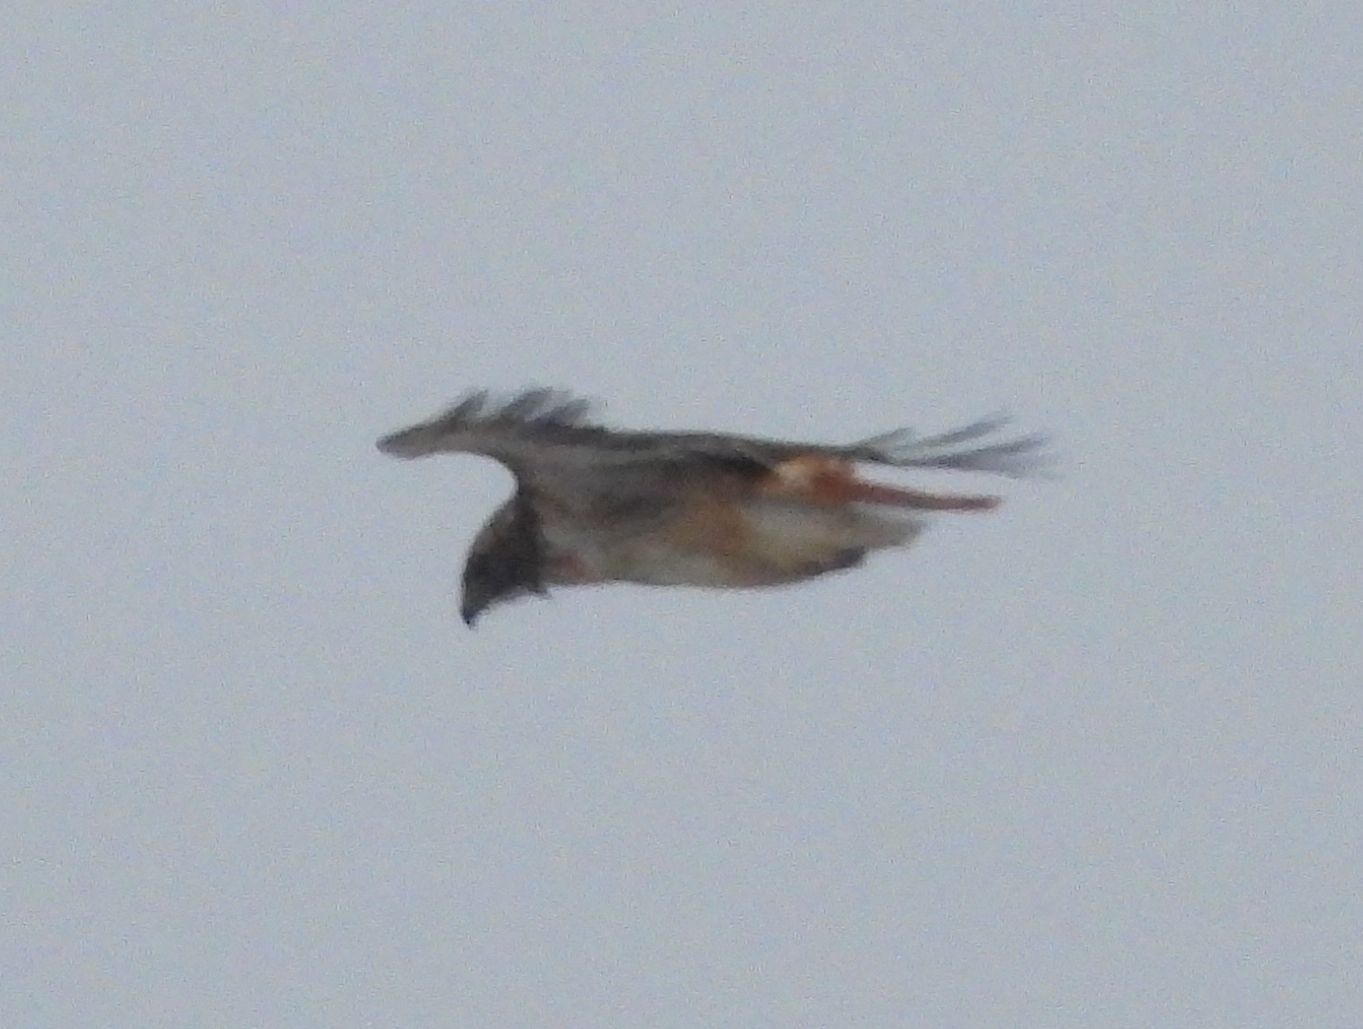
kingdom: Animalia
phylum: Chordata
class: Aves
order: Accipitriformes
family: Accipitridae
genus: Buteo
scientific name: Buteo jamaicensis
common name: Red-tailed hawk
